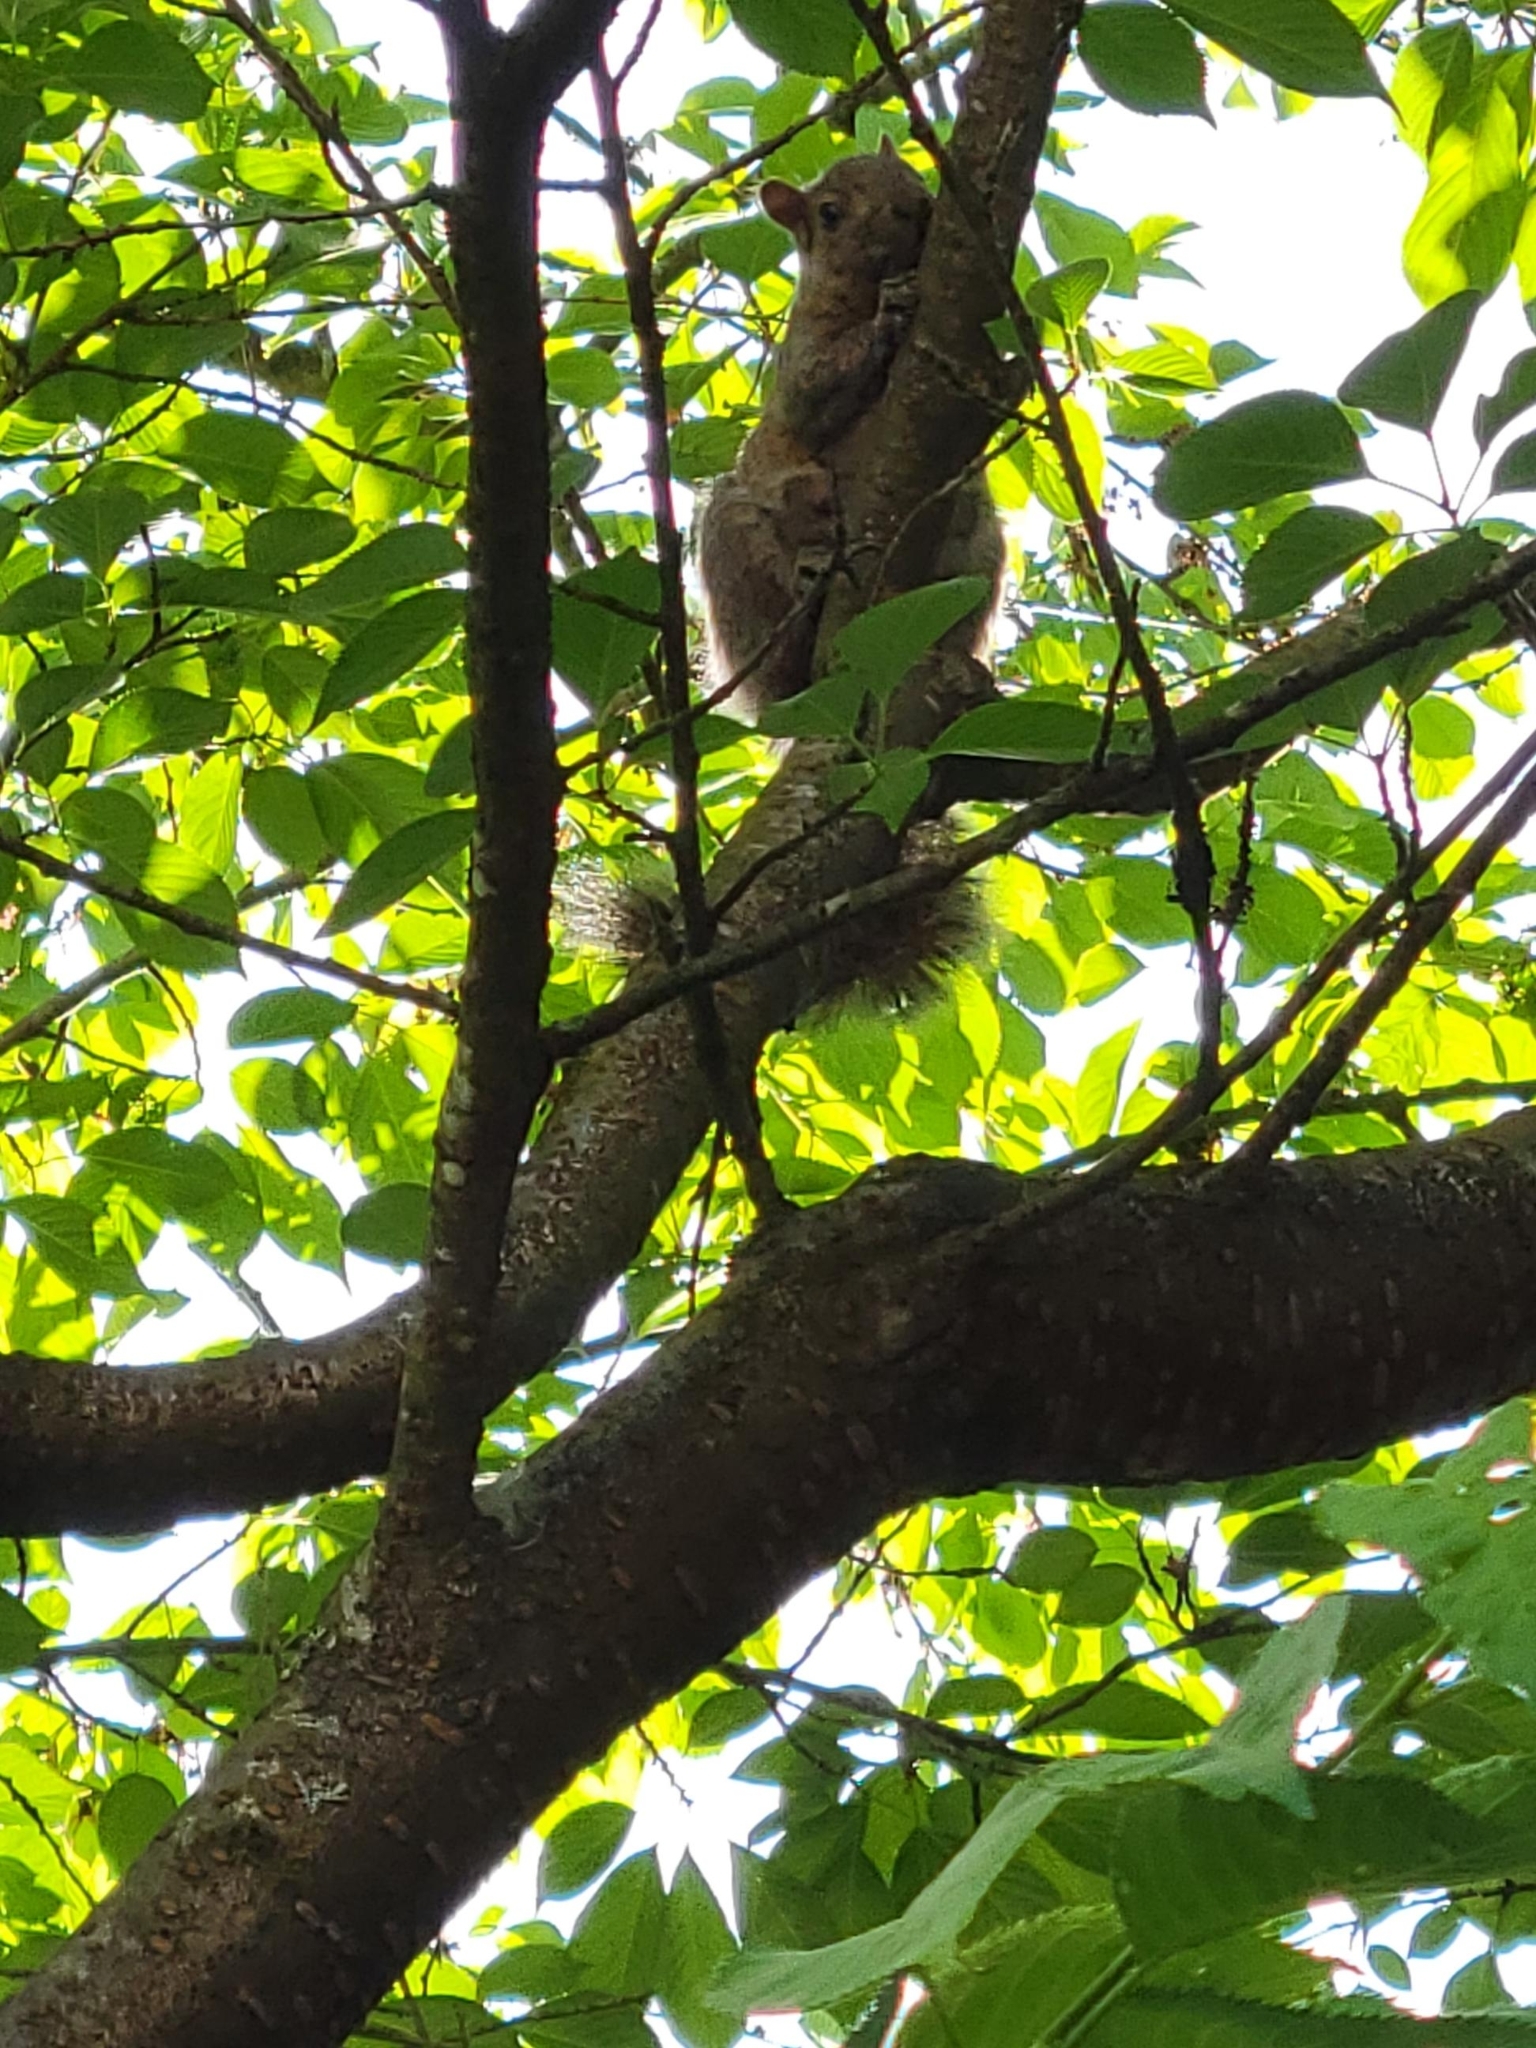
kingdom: Animalia
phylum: Chordata
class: Mammalia
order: Rodentia
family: Sciuridae
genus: Sciurus
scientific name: Sciurus carolinensis
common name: Eastern gray squirrel
